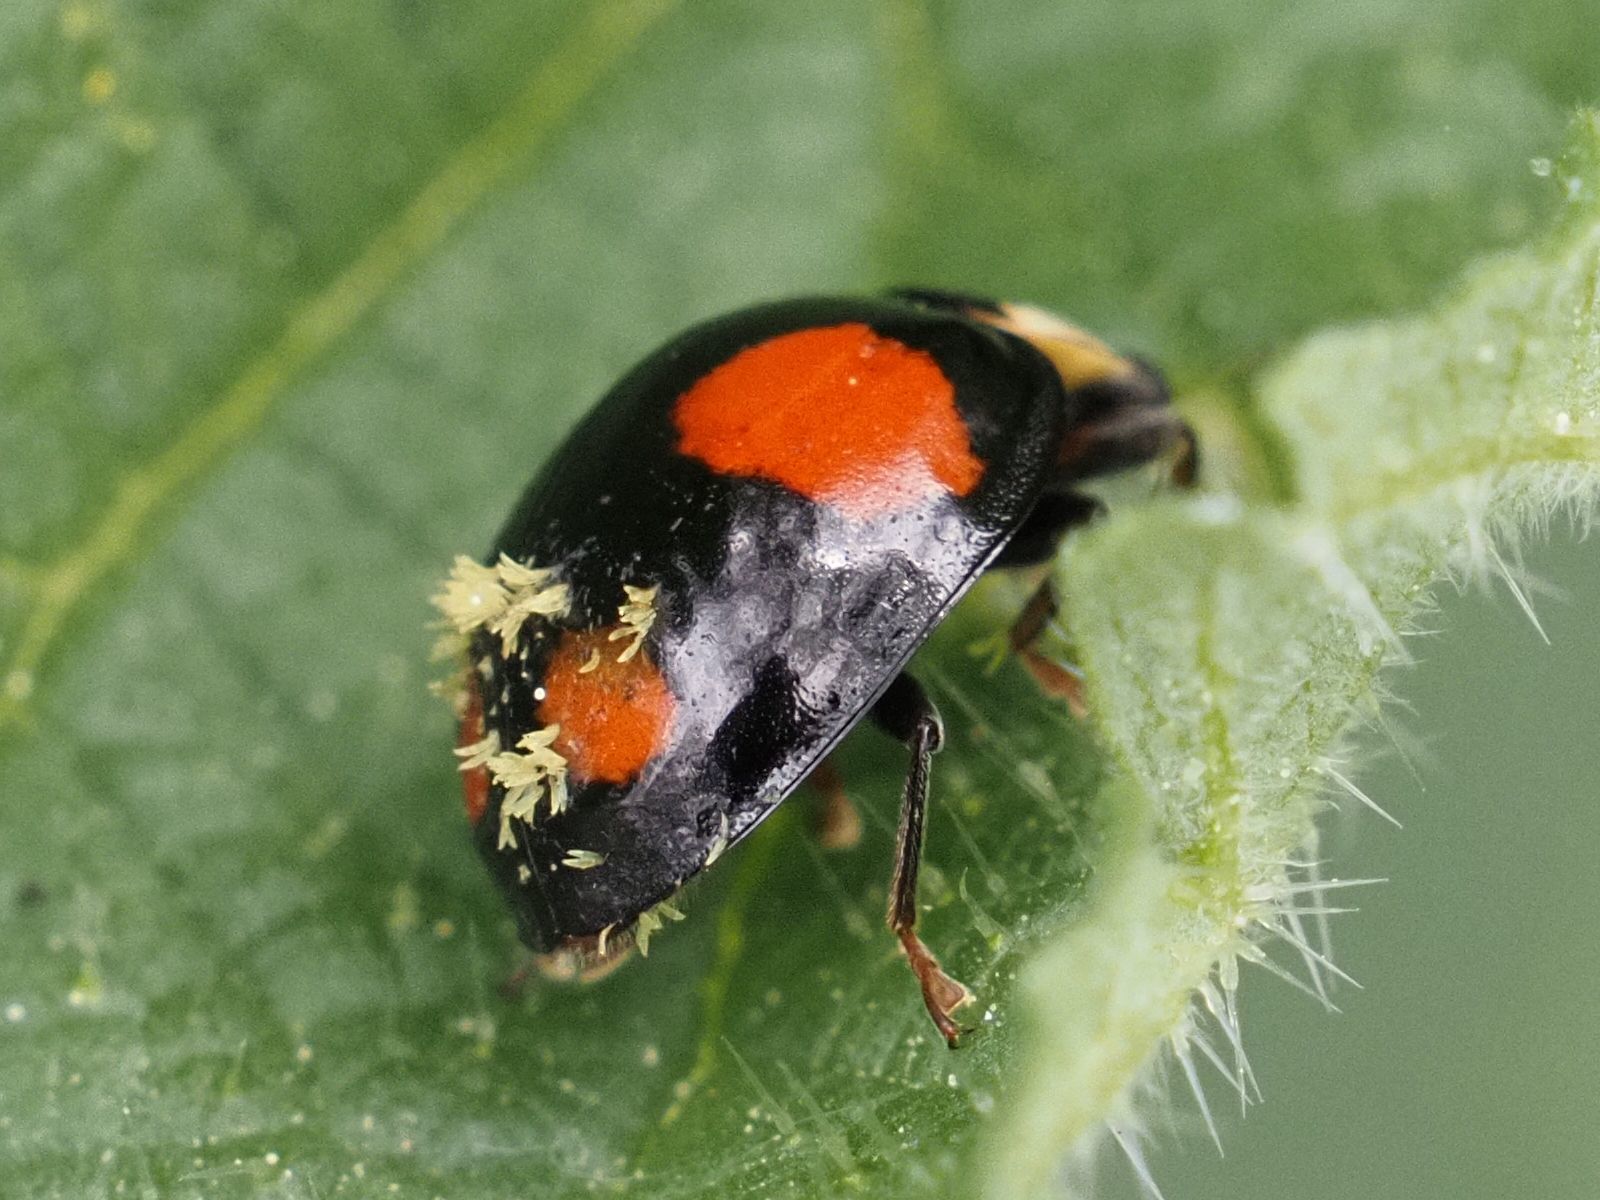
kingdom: Animalia
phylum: Arthropoda
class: Insecta
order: Coleoptera
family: Coccinellidae
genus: Harmonia
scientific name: Harmonia axyridis
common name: Harlequin ladybird
